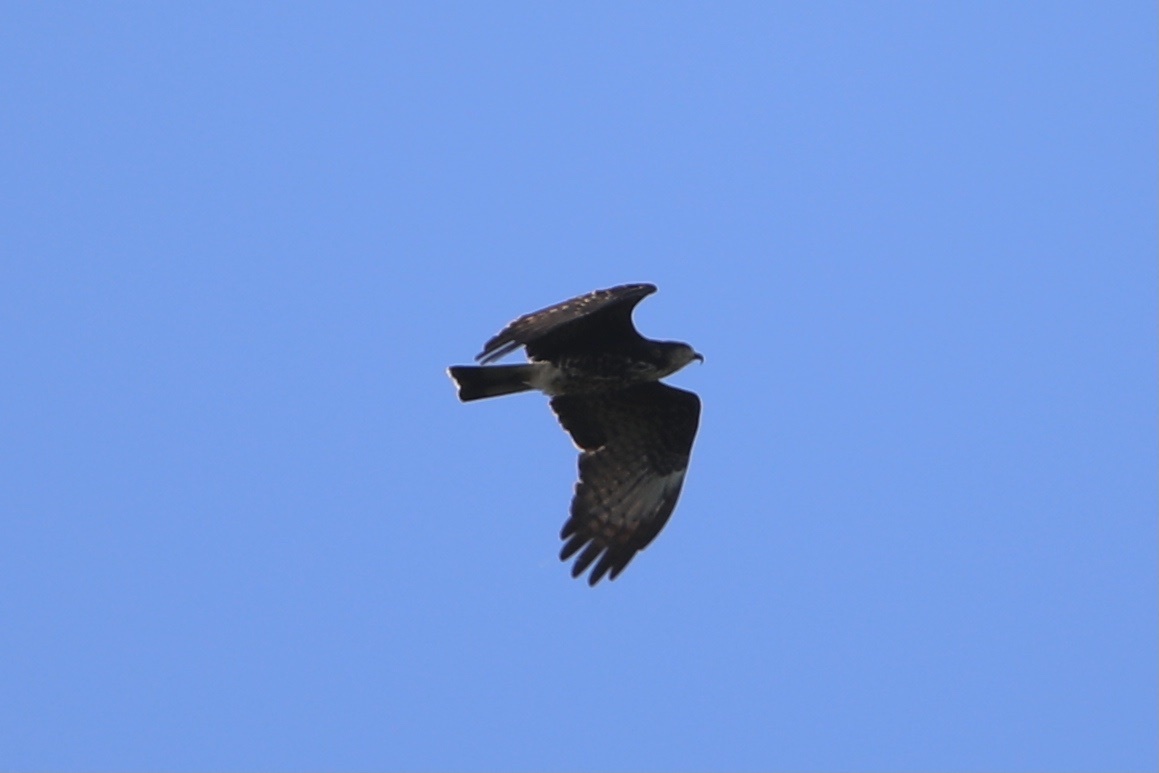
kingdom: Animalia
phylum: Chordata
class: Aves
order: Accipitriformes
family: Accipitridae
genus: Rostrhamus
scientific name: Rostrhamus sociabilis
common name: Snail kite
